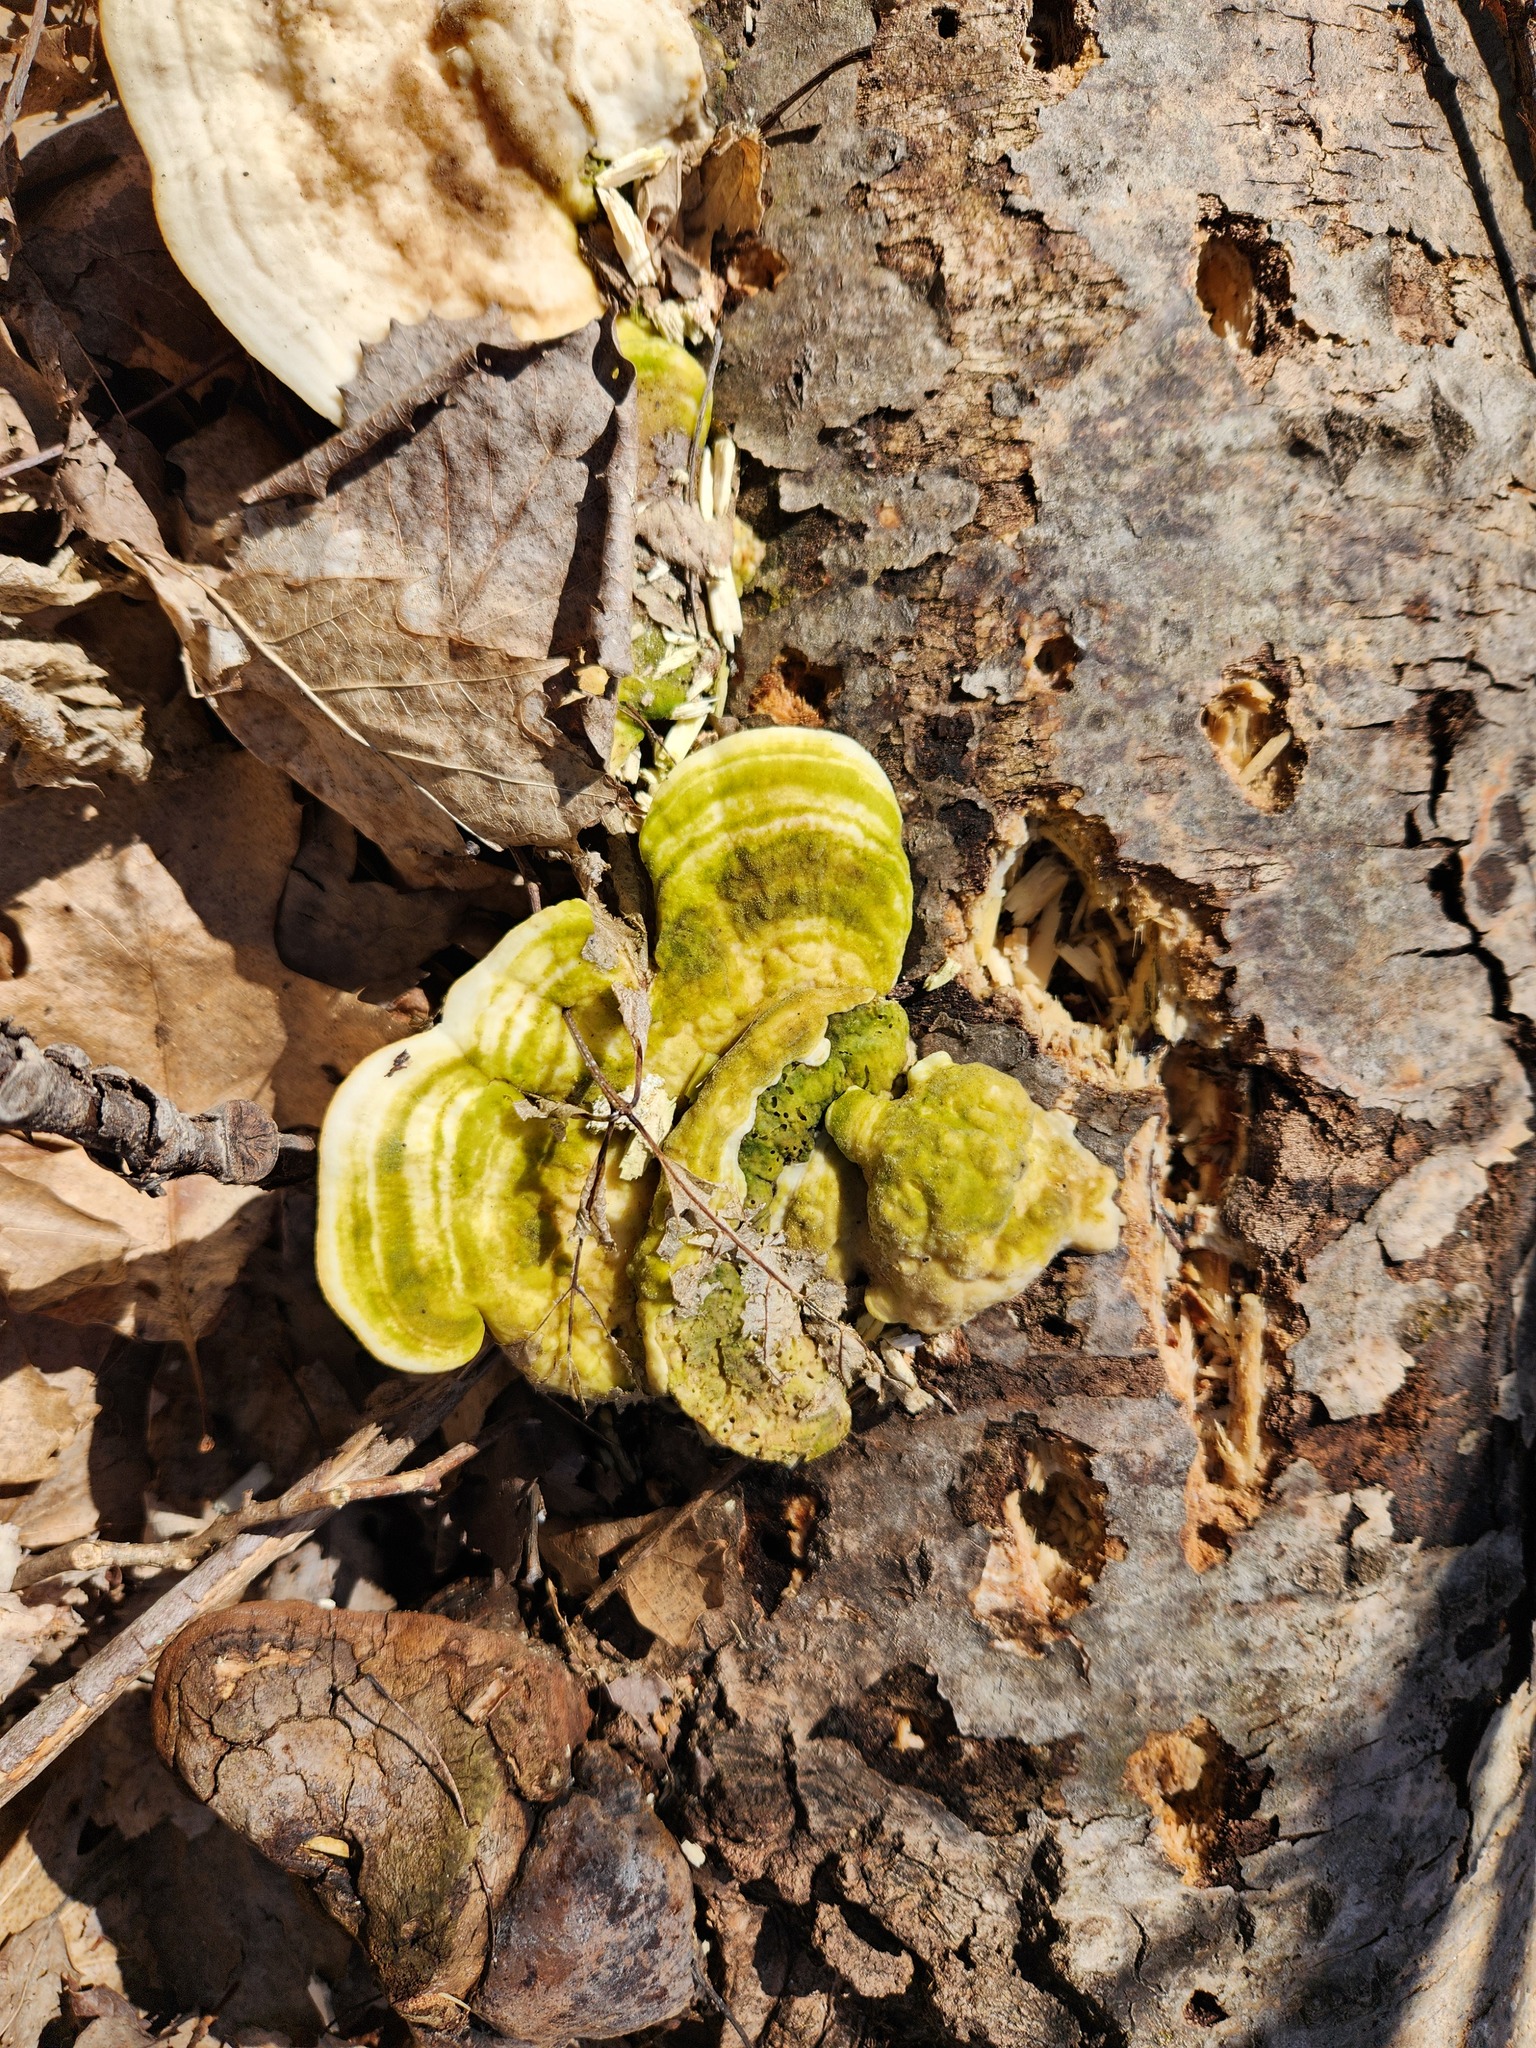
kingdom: Fungi
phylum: Basidiomycota
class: Agaricomycetes
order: Polyporales
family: Polyporaceae
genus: Trametes
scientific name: Trametes gibbosa
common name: Lumpy bracket
